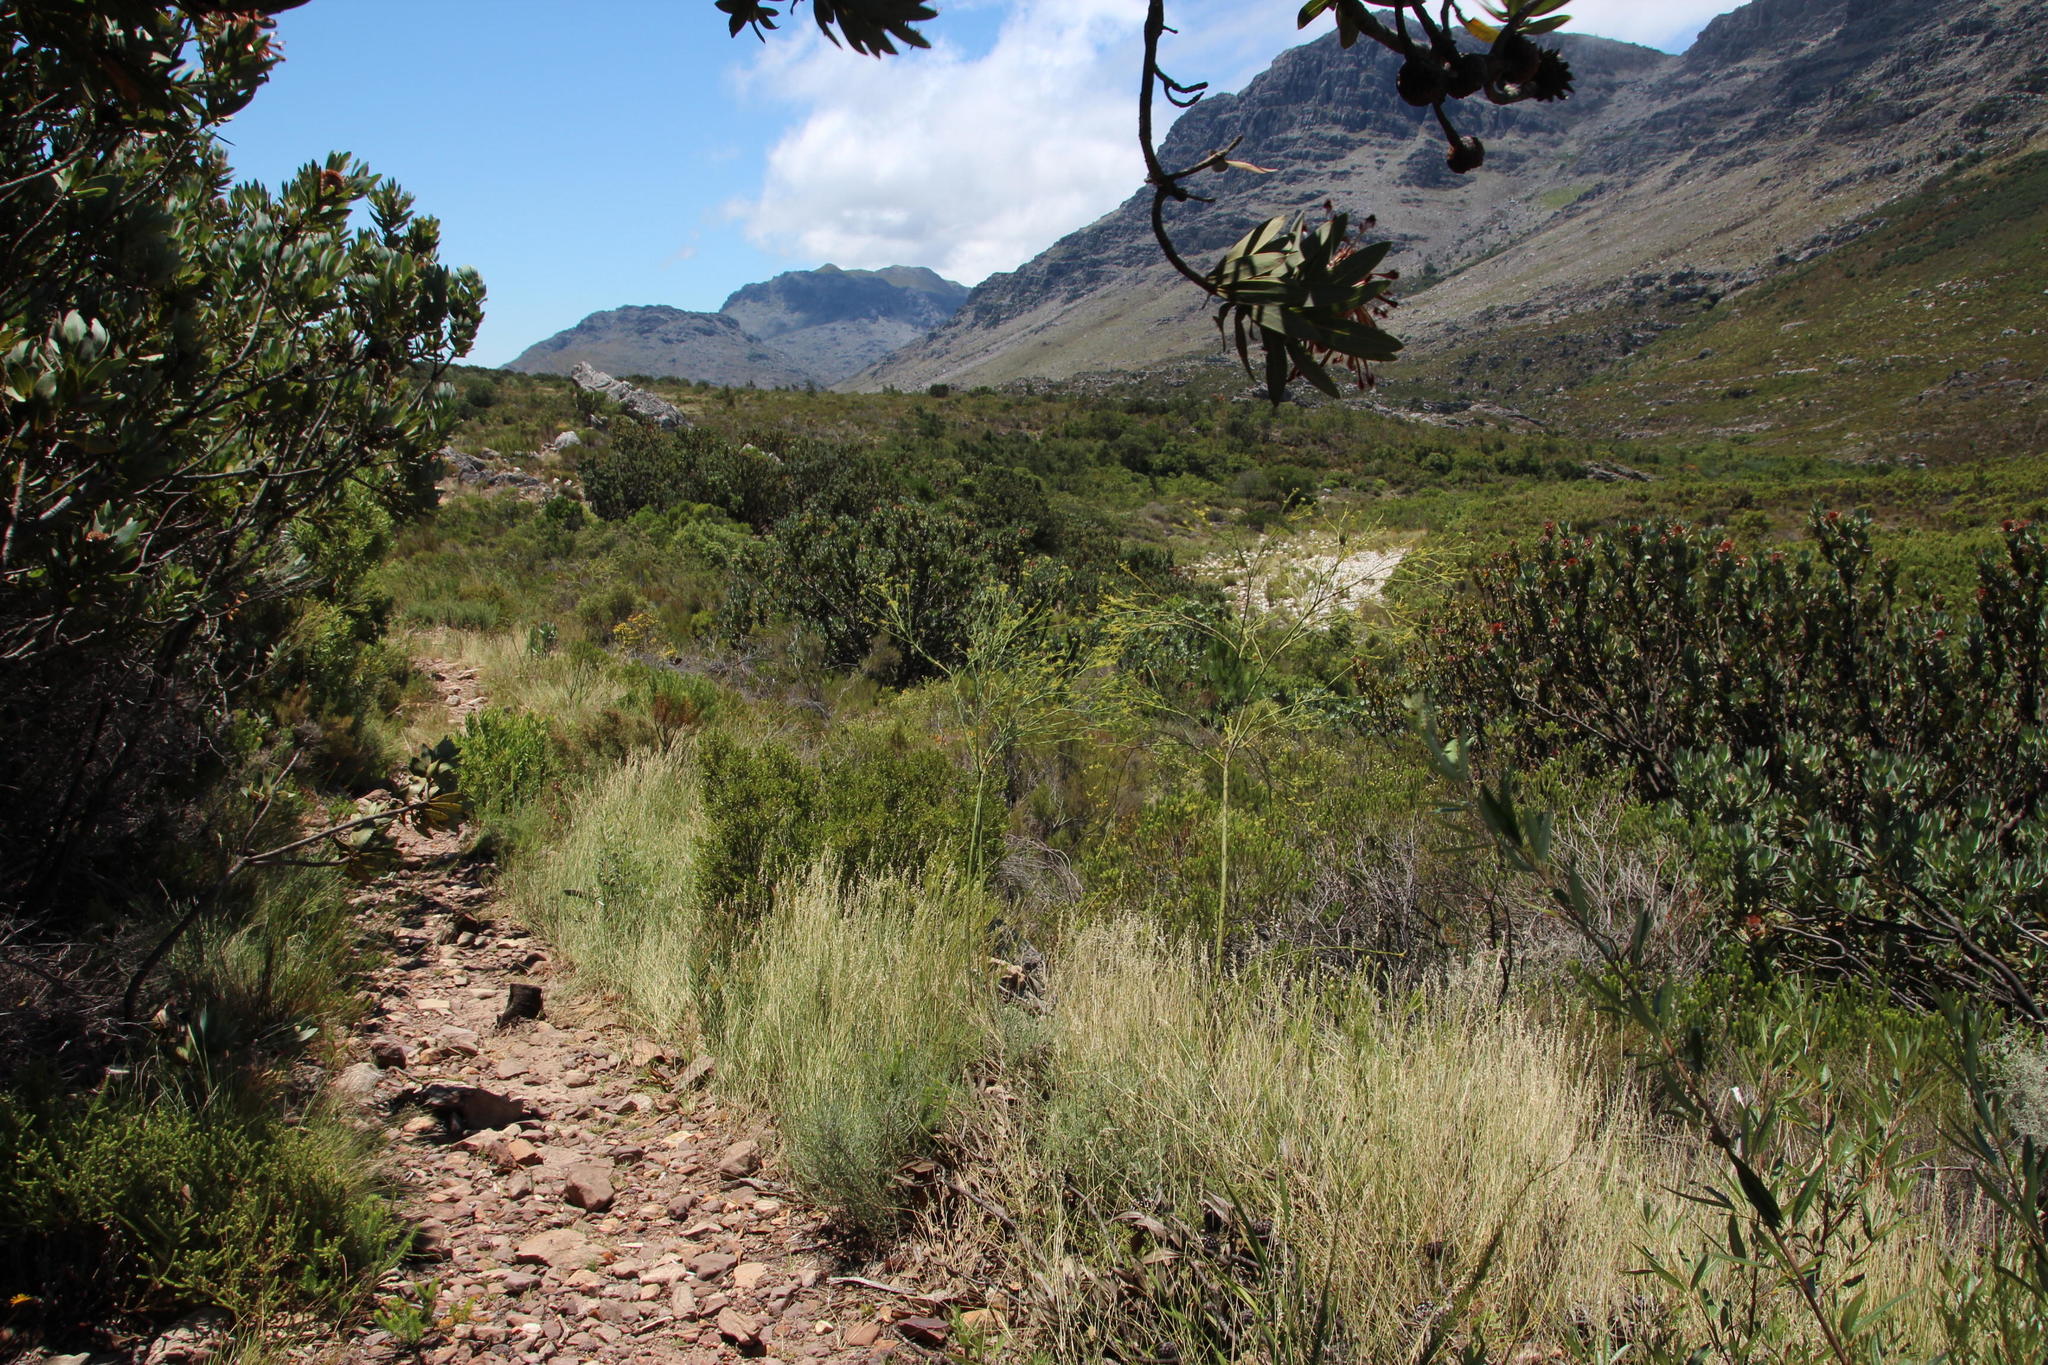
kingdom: Plantae
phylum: Tracheophyta
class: Magnoliopsida
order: Santalales
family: Thesiaceae
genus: Thesium
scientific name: Thesium strictum
